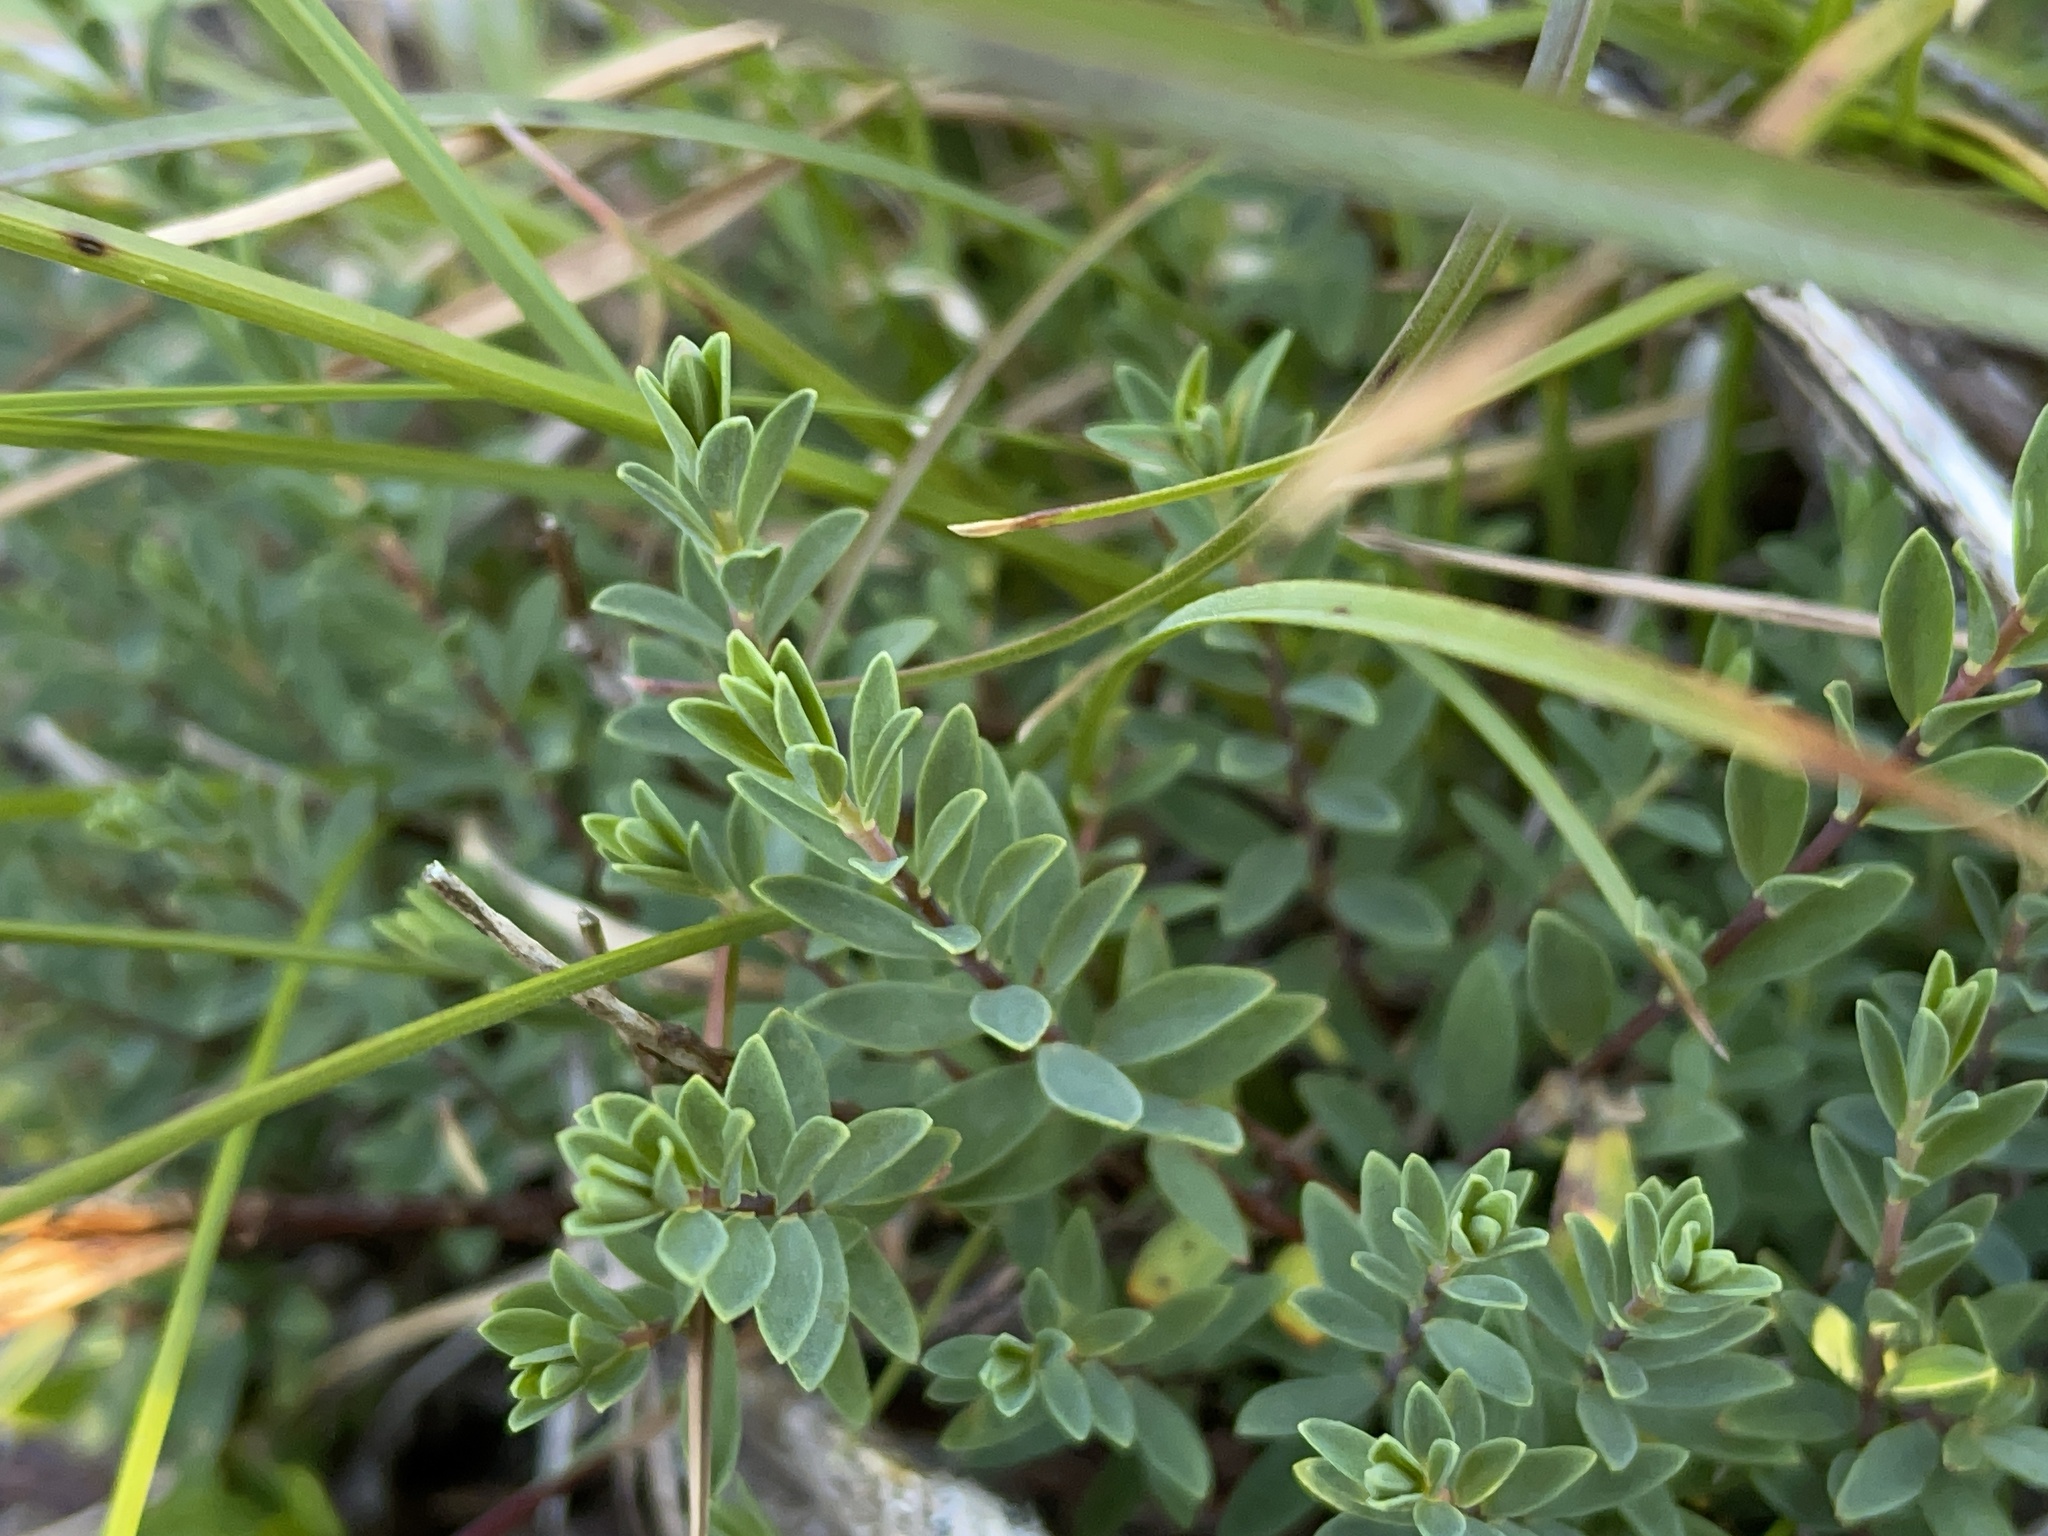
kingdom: Plantae
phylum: Tracheophyta
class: Magnoliopsida
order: Malvales
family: Thymelaeaceae
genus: Pimelea
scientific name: Pimelea alpina
